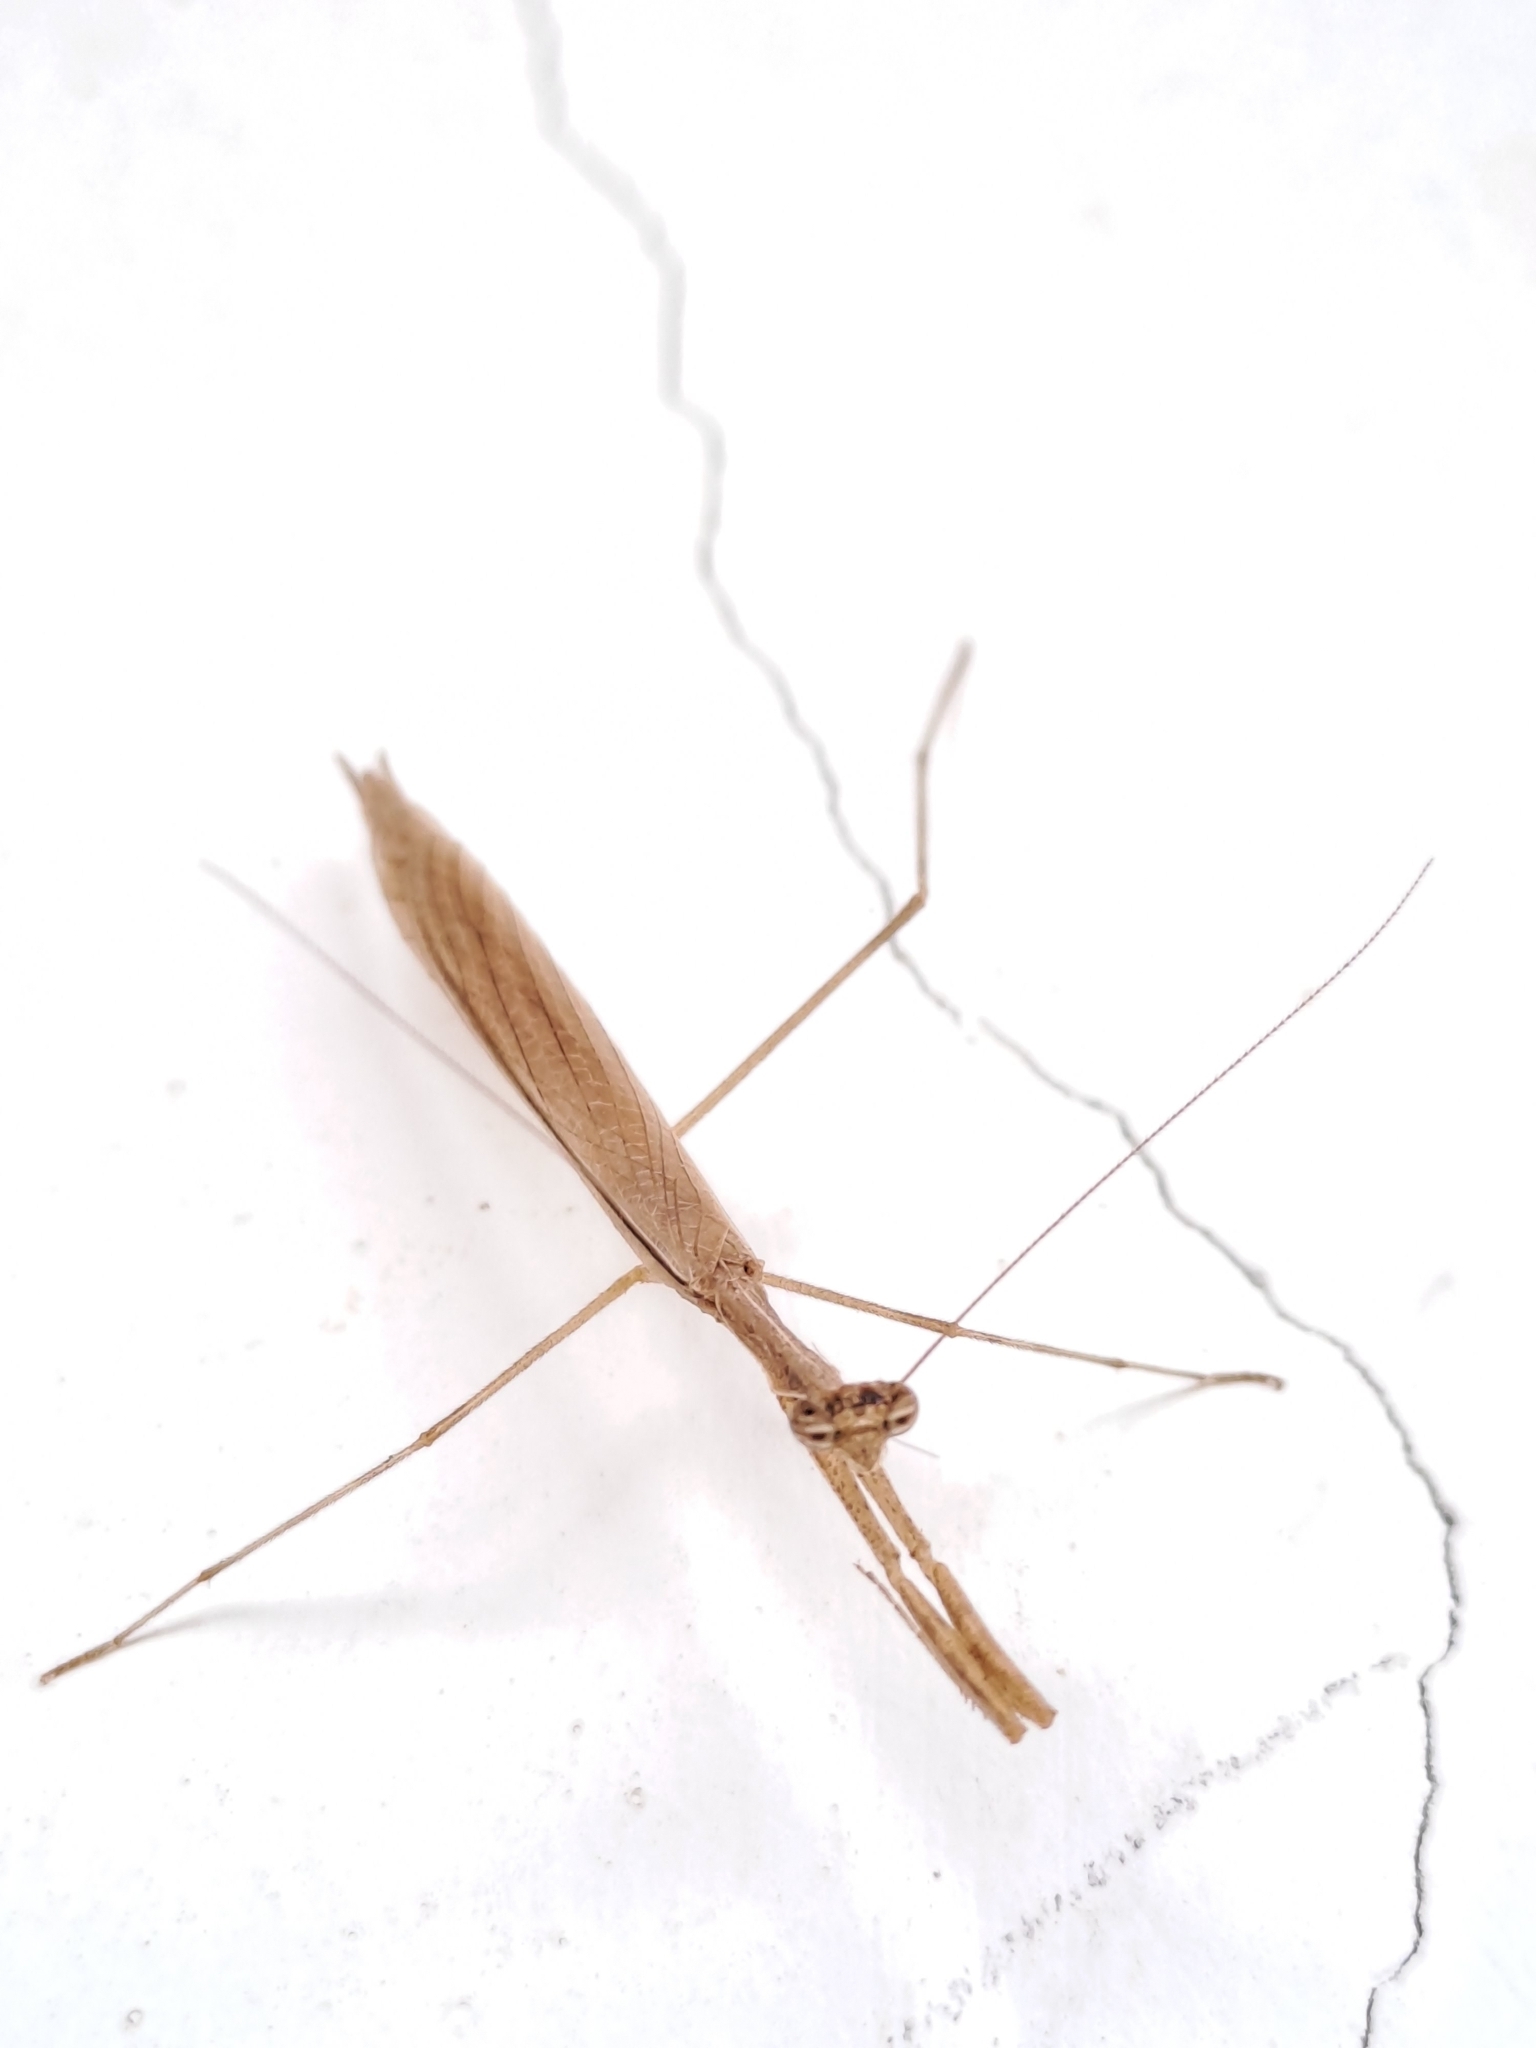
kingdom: Animalia
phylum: Arthropoda
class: Insecta
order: Mantodea
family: Thespidae
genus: Musonia
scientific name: Musonia
